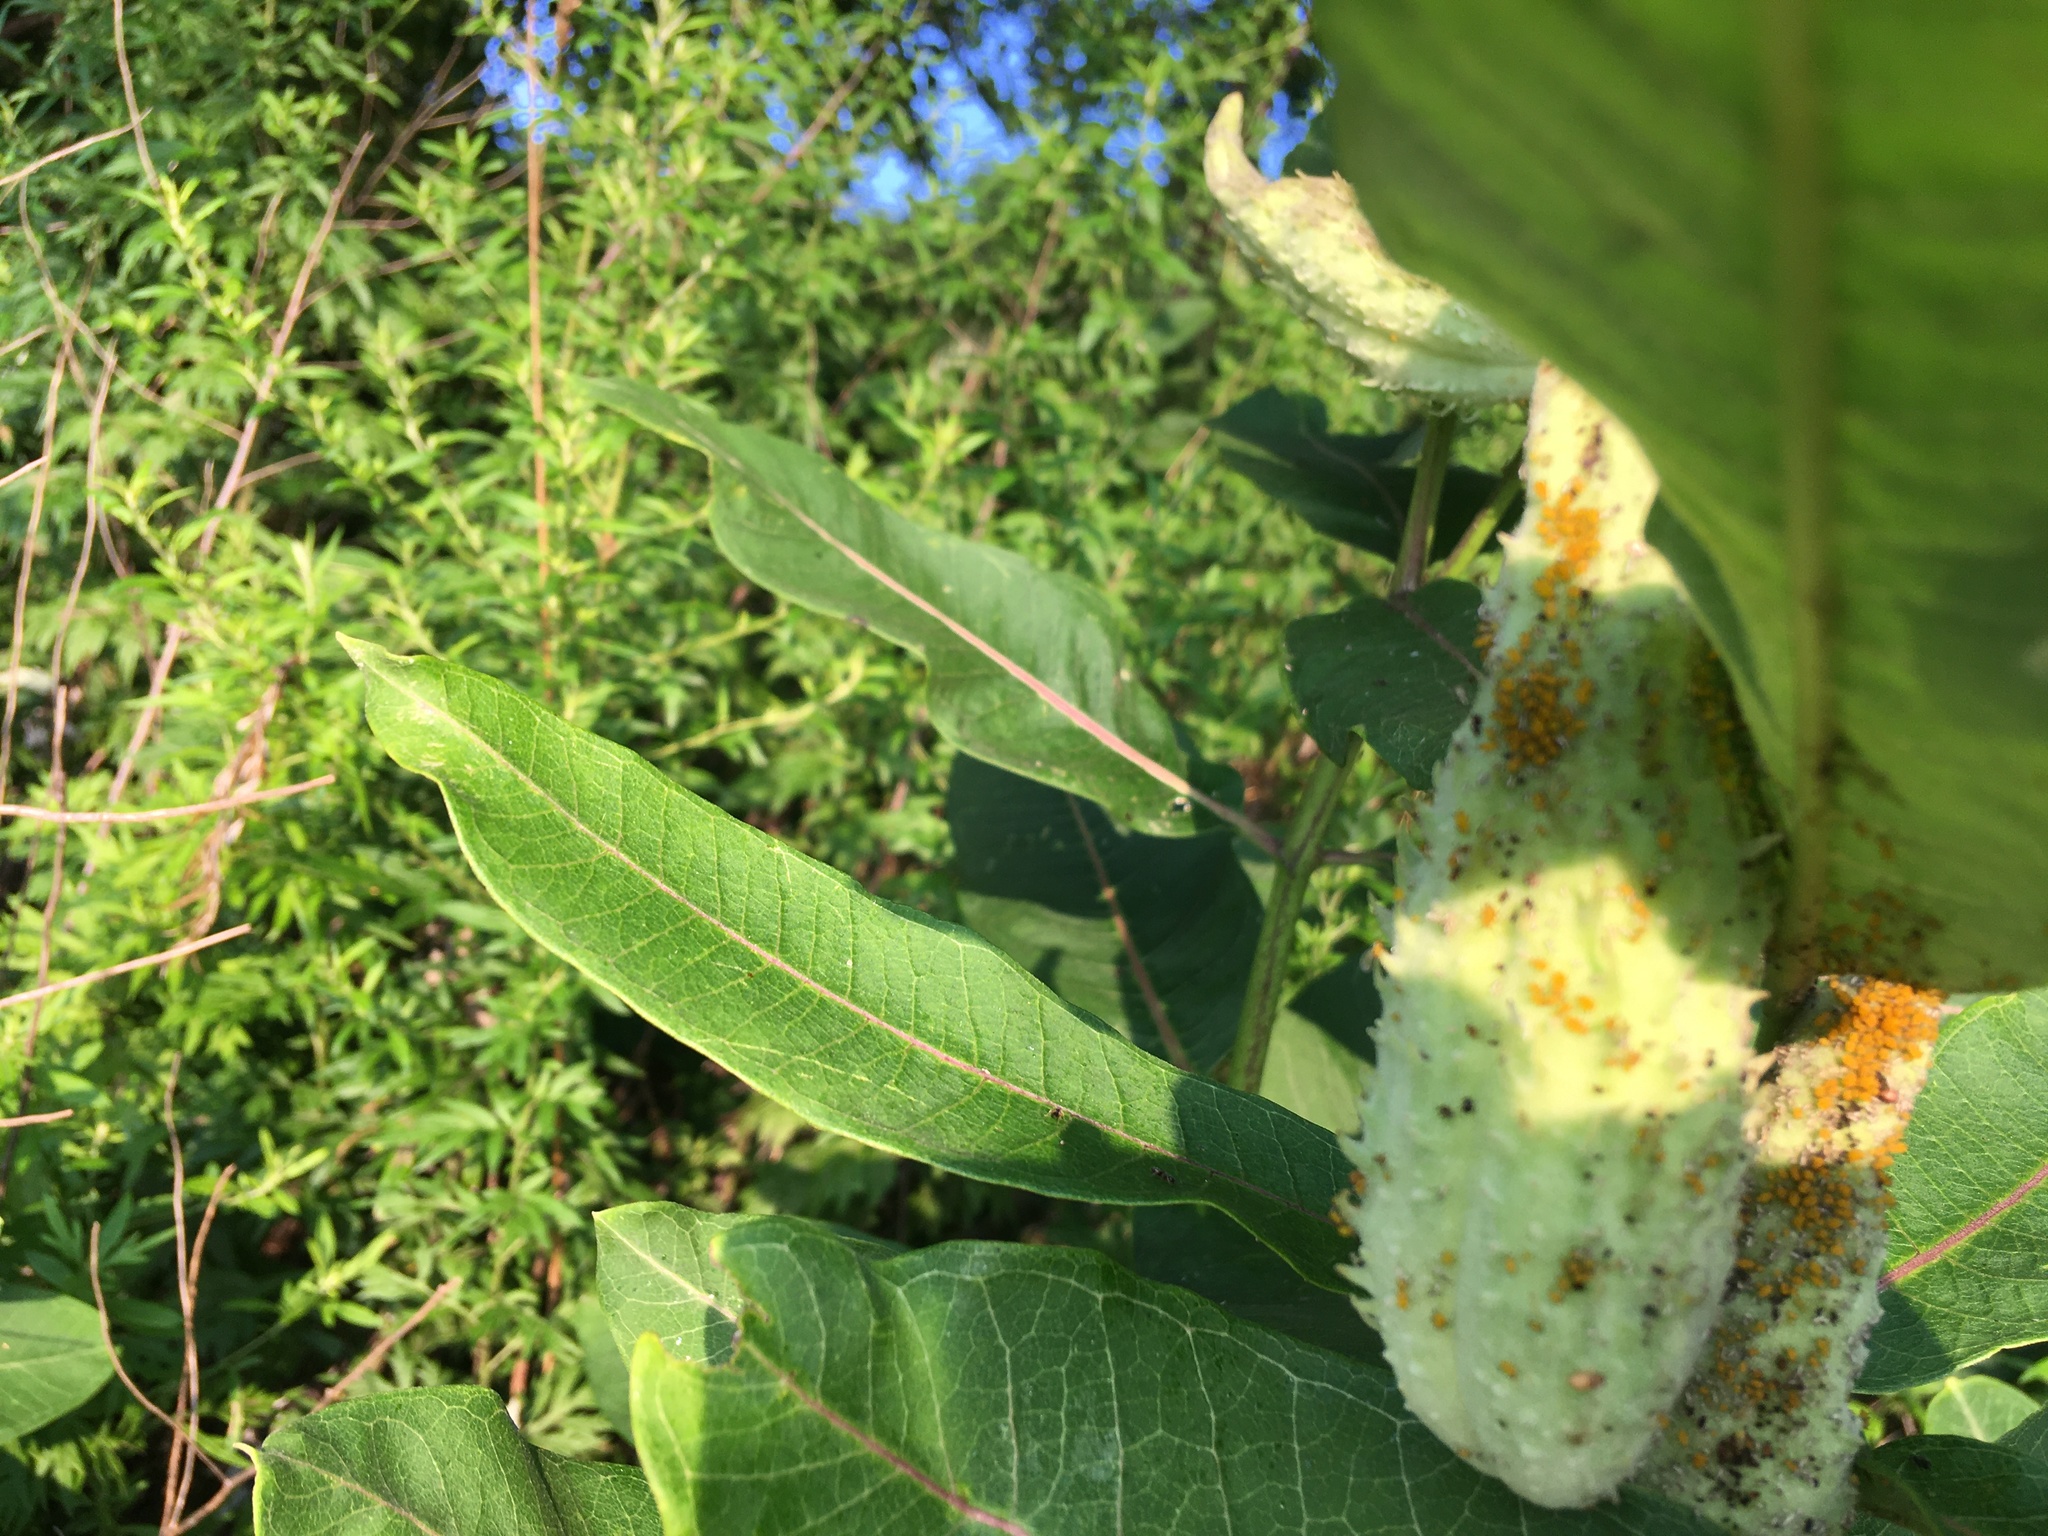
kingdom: Plantae
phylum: Tracheophyta
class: Magnoliopsida
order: Gentianales
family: Apocynaceae
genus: Asclepias
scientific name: Asclepias syriaca
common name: Common milkweed
